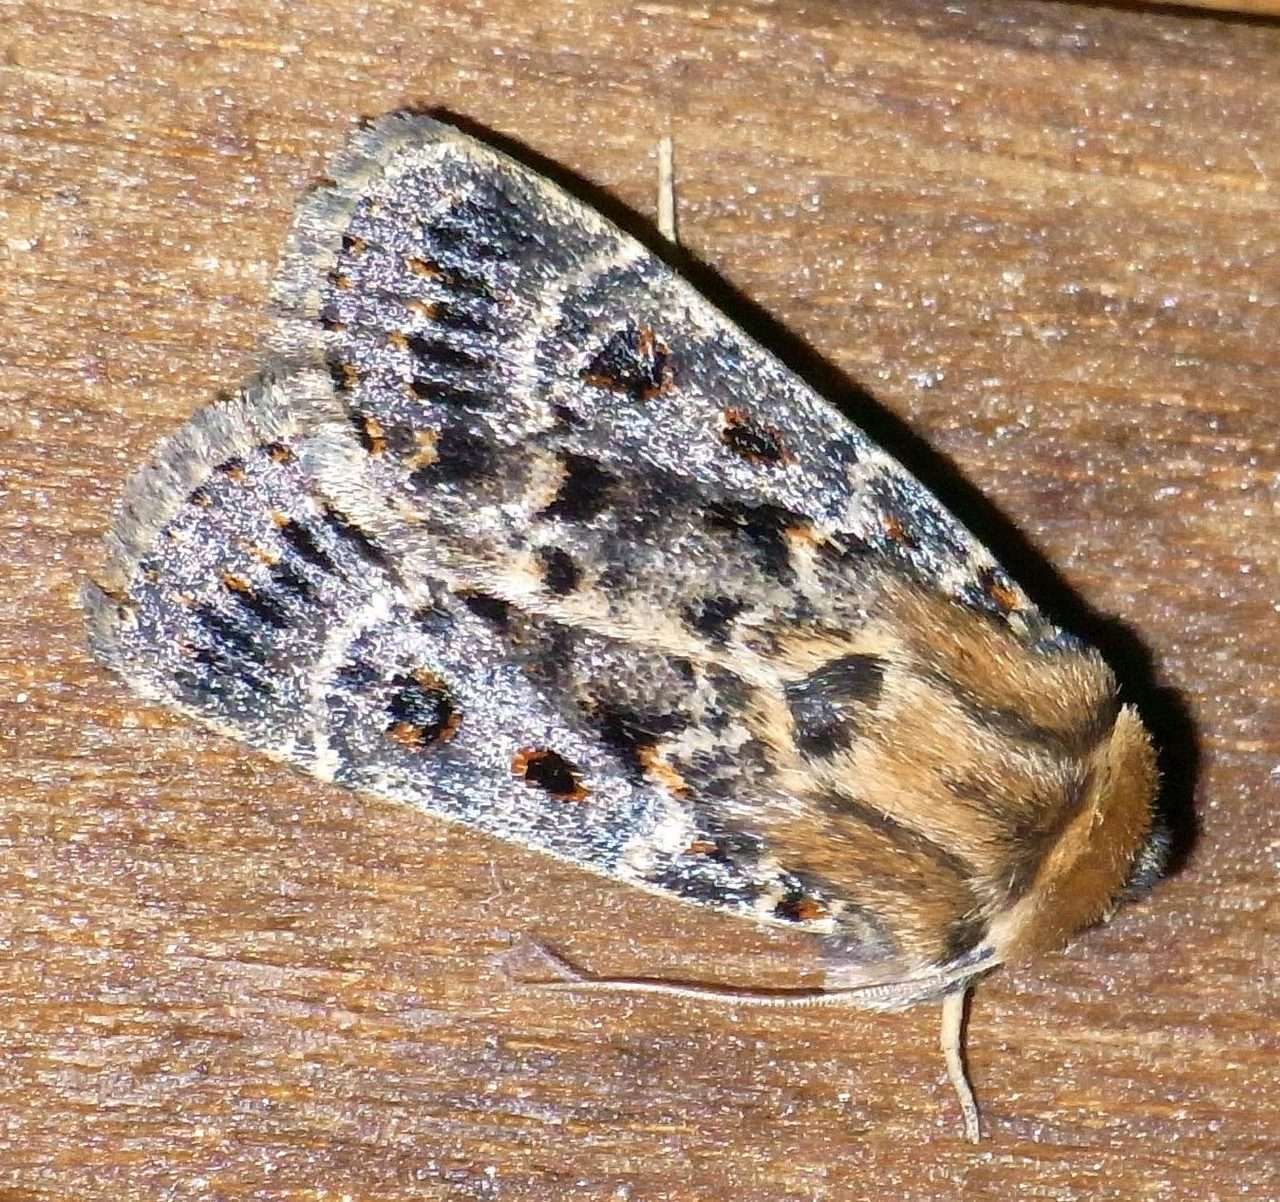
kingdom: Animalia
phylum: Arthropoda
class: Insecta
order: Lepidoptera
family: Noctuidae
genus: Proteuxoa
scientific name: Proteuxoa sanguinipuncta
